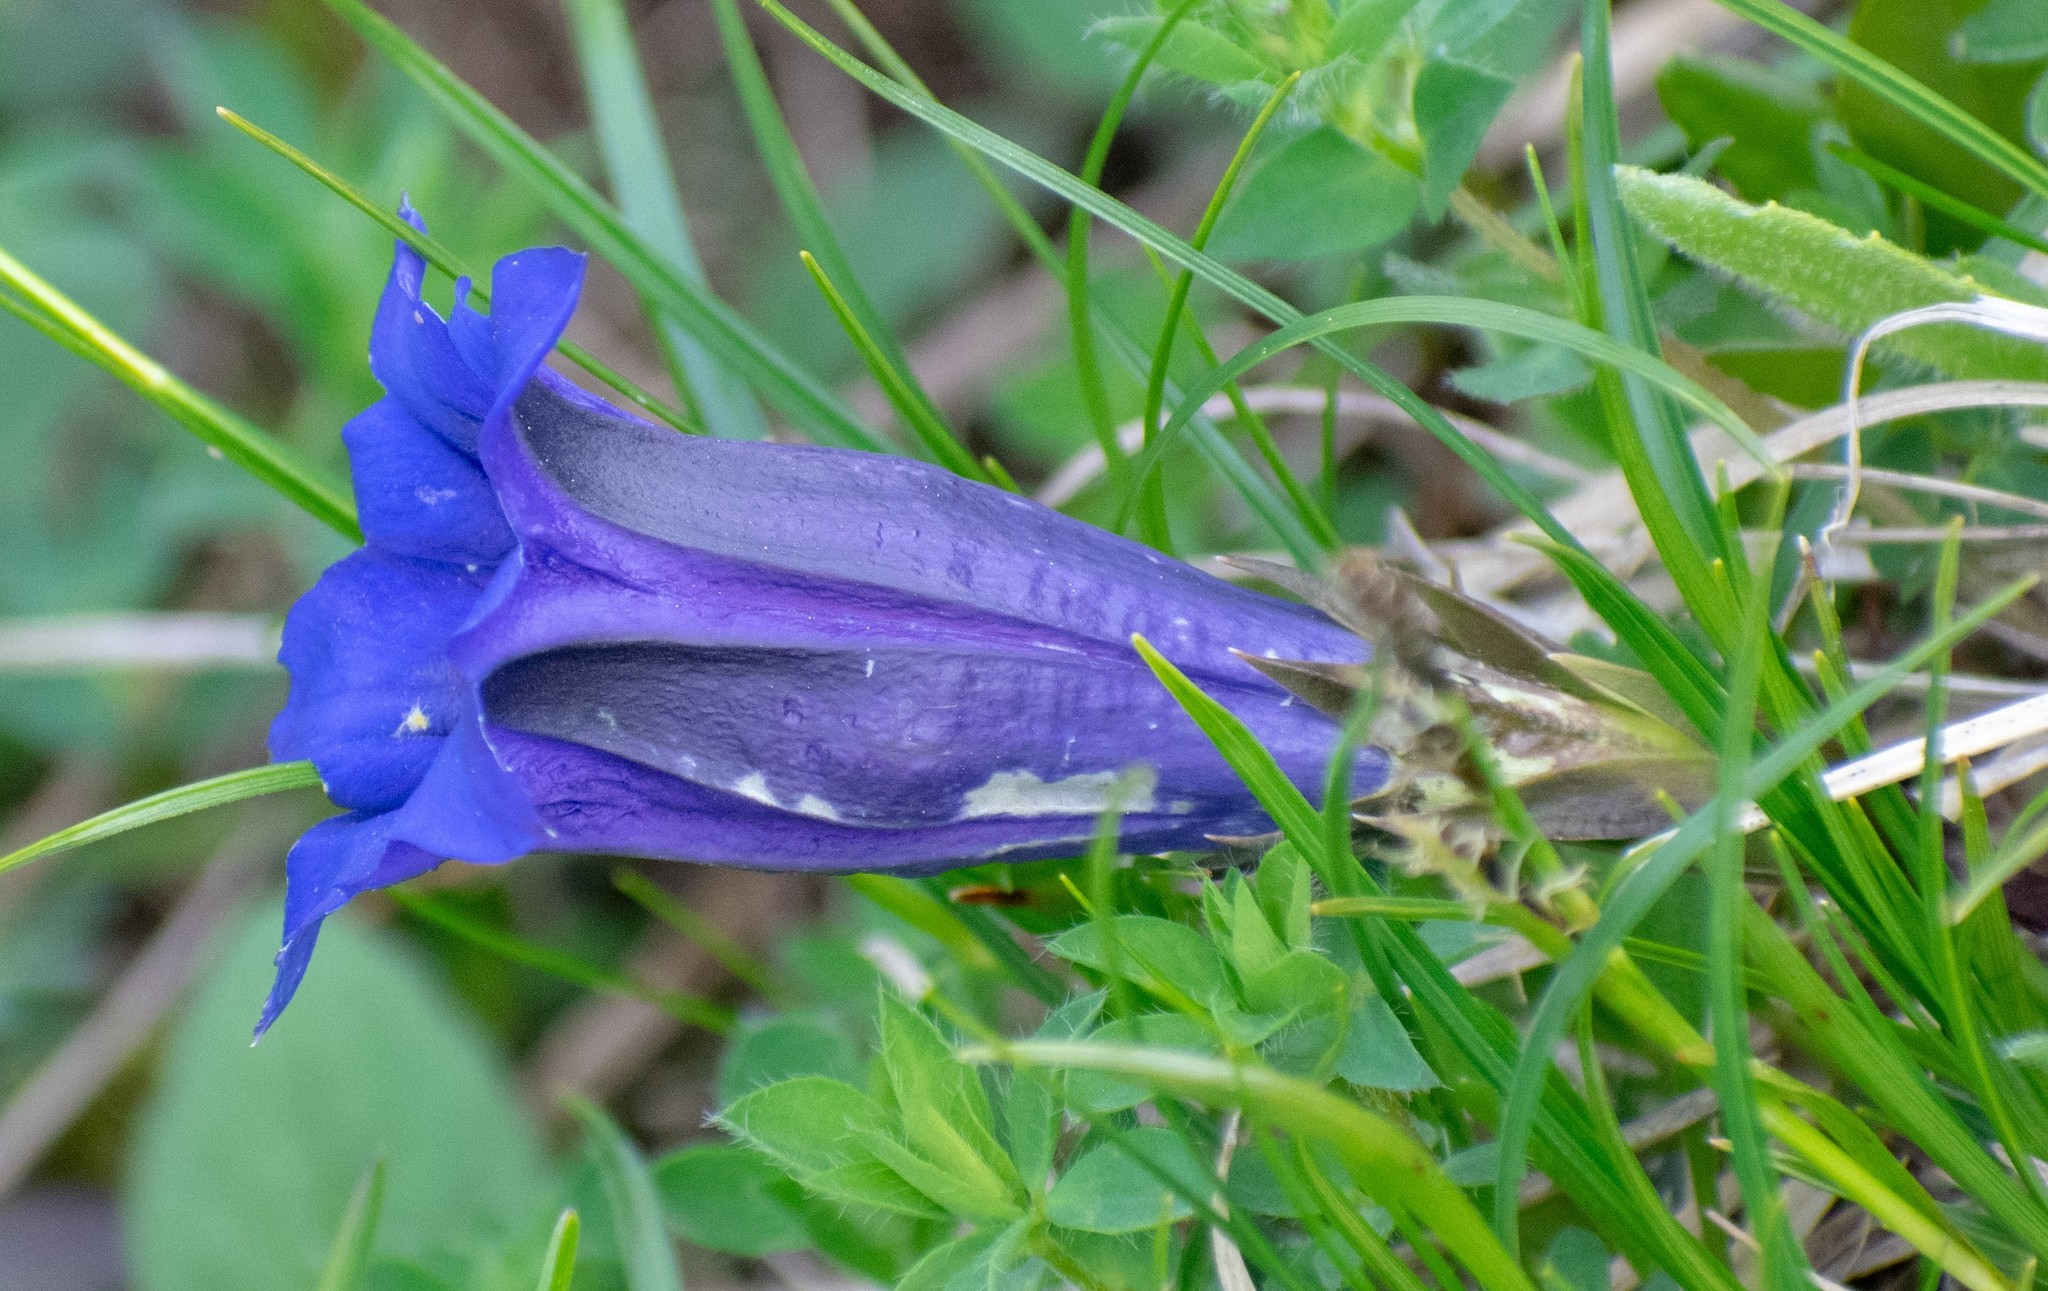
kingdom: Plantae
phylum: Tracheophyta
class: Magnoliopsida
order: Gentianales
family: Gentianaceae
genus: Gentiana
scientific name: Gentiana clusii
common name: Trumpet gentian
